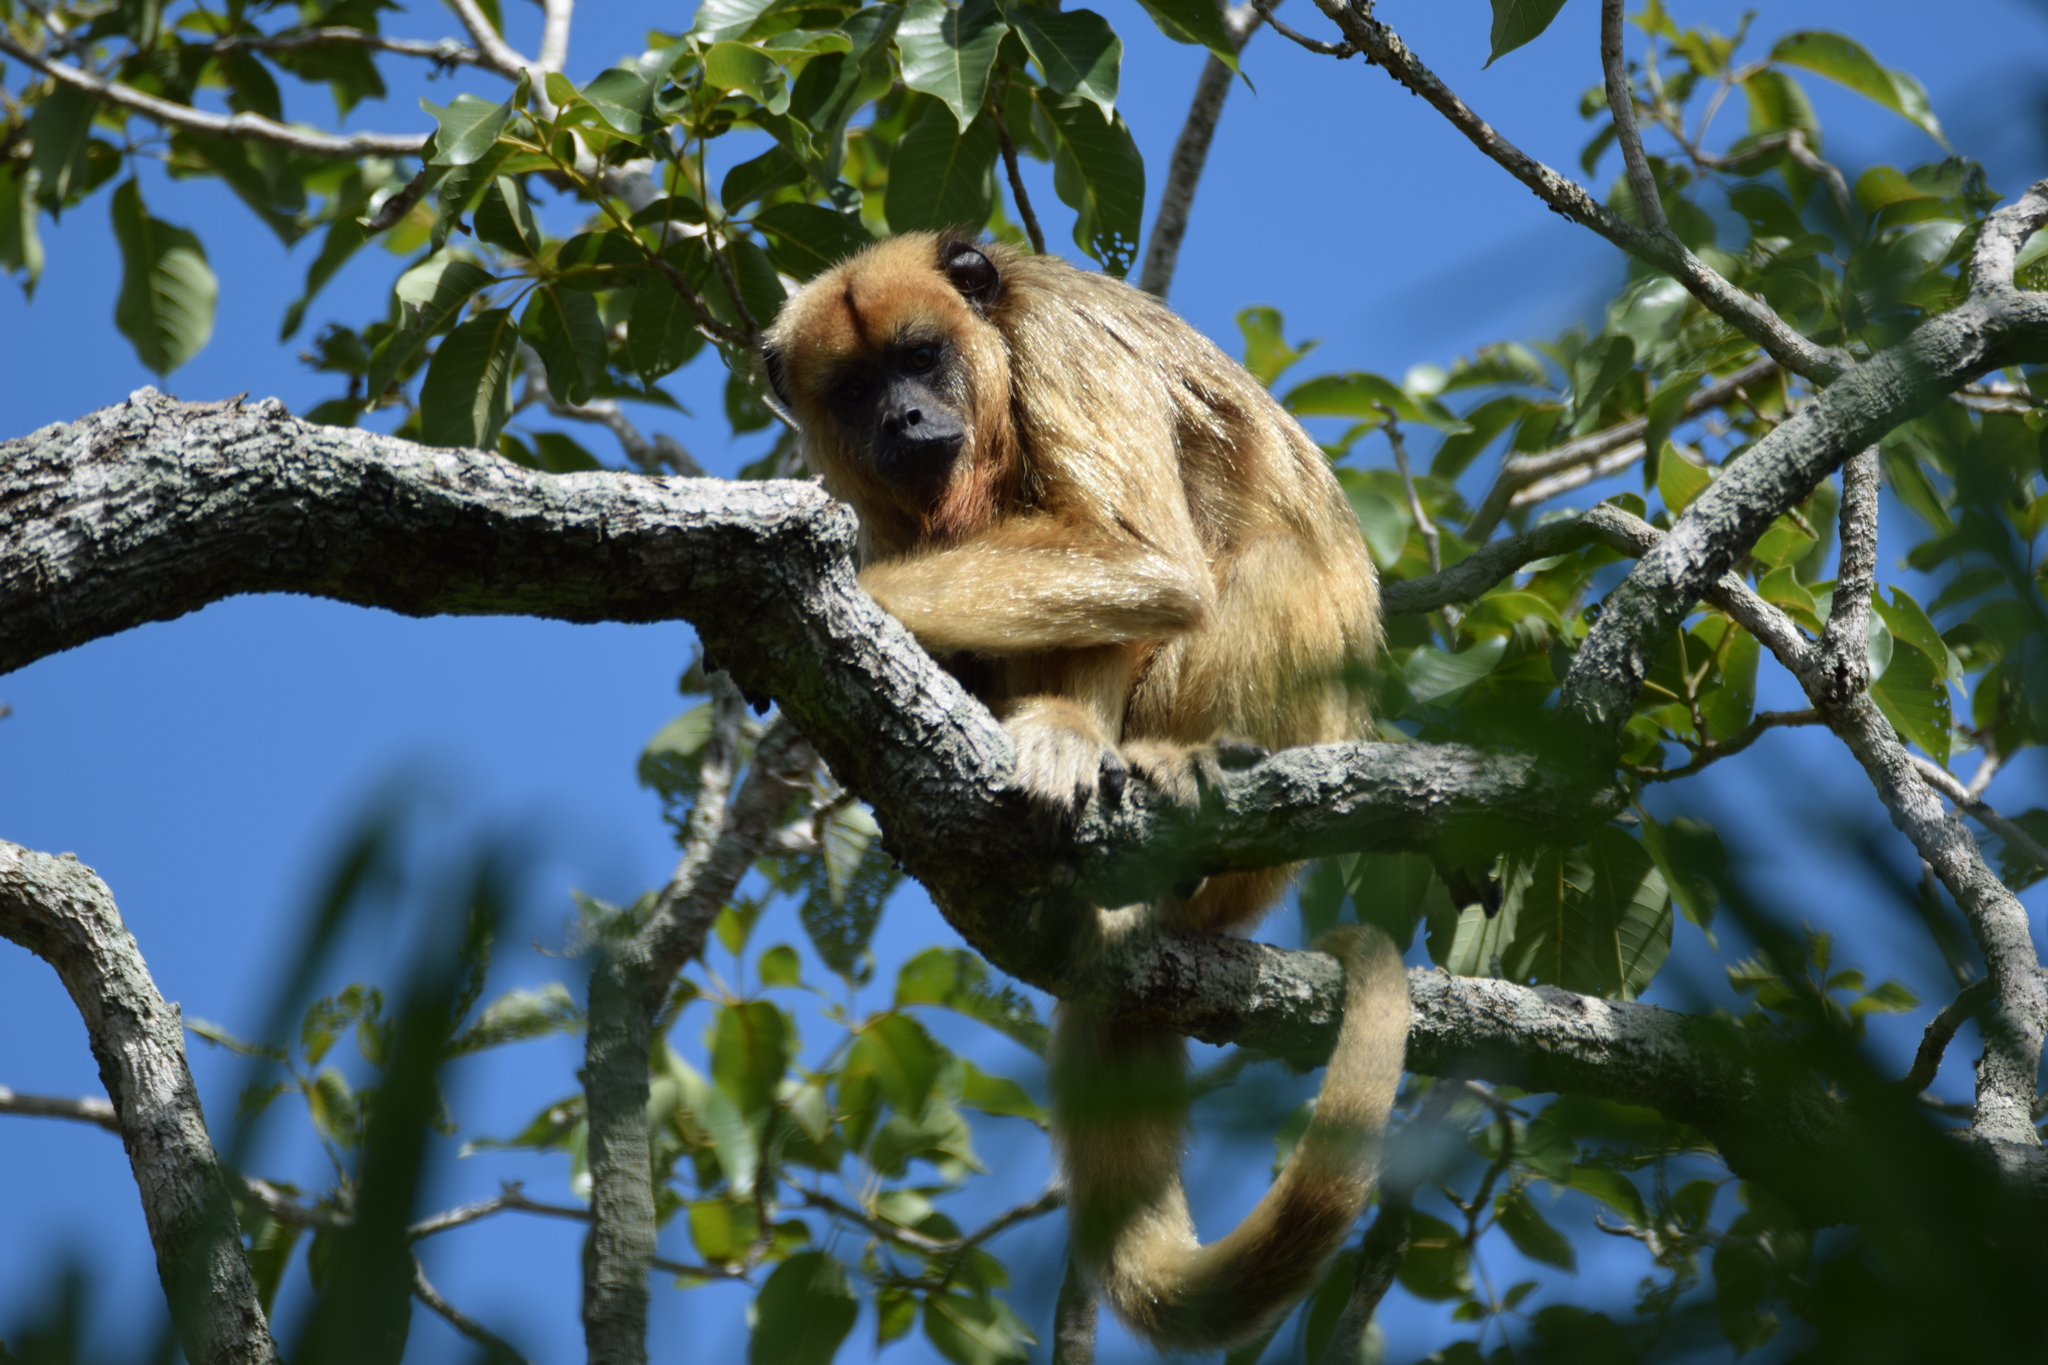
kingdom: Animalia
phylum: Chordata
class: Mammalia
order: Primates
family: Atelidae
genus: Alouatta
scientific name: Alouatta caraya
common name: Black howler
